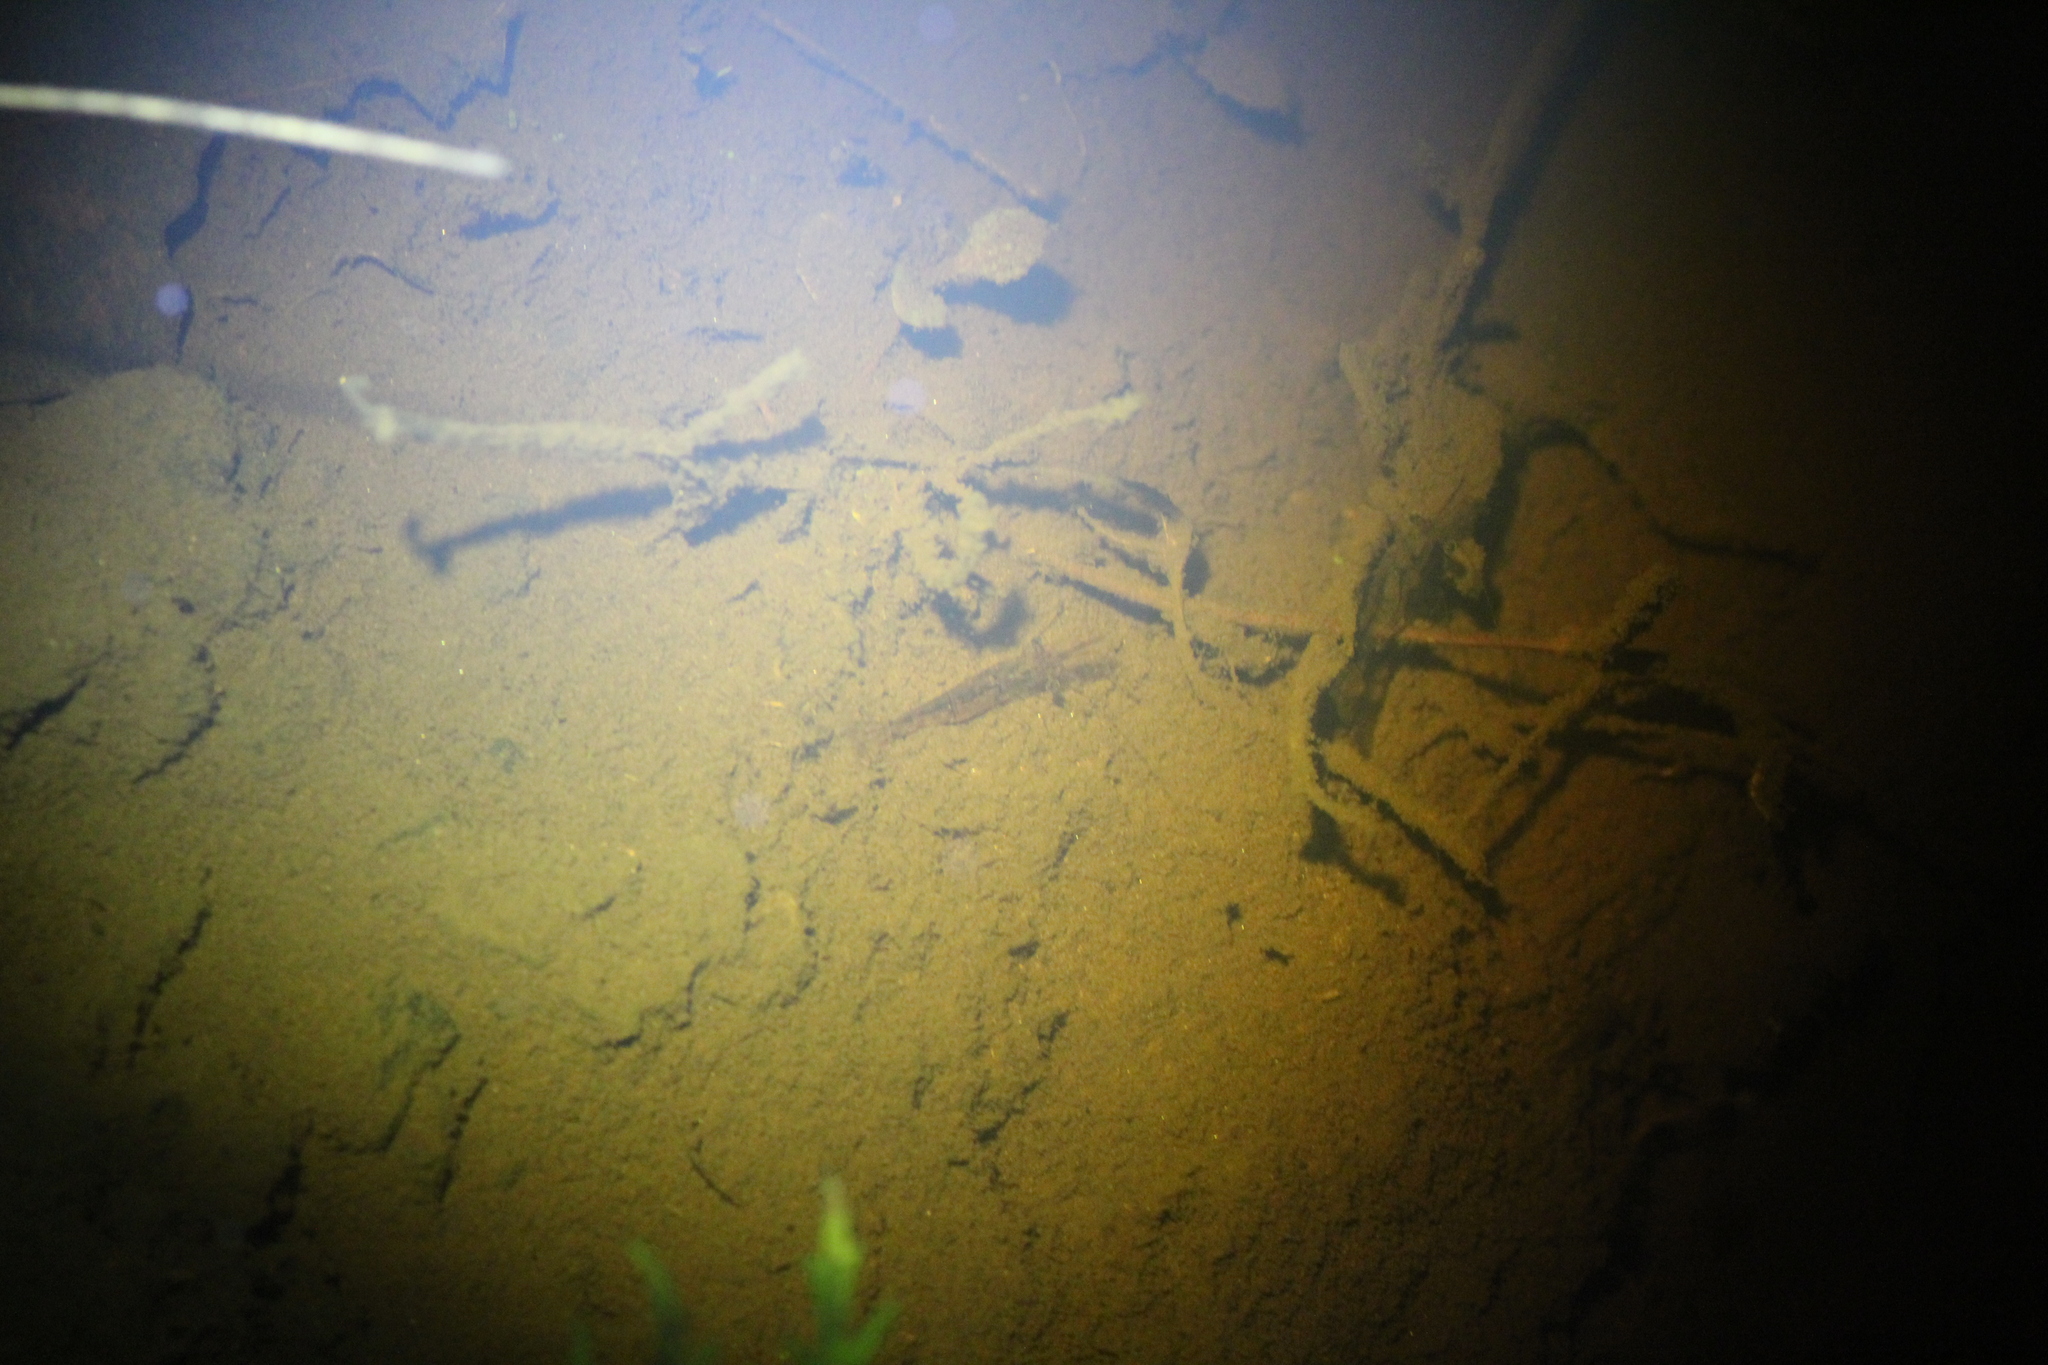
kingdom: Animalia
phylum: Arthropoda
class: Malacostraca
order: Decapoda
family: Palaemonidae
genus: Palaemon
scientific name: Palaemon australis
